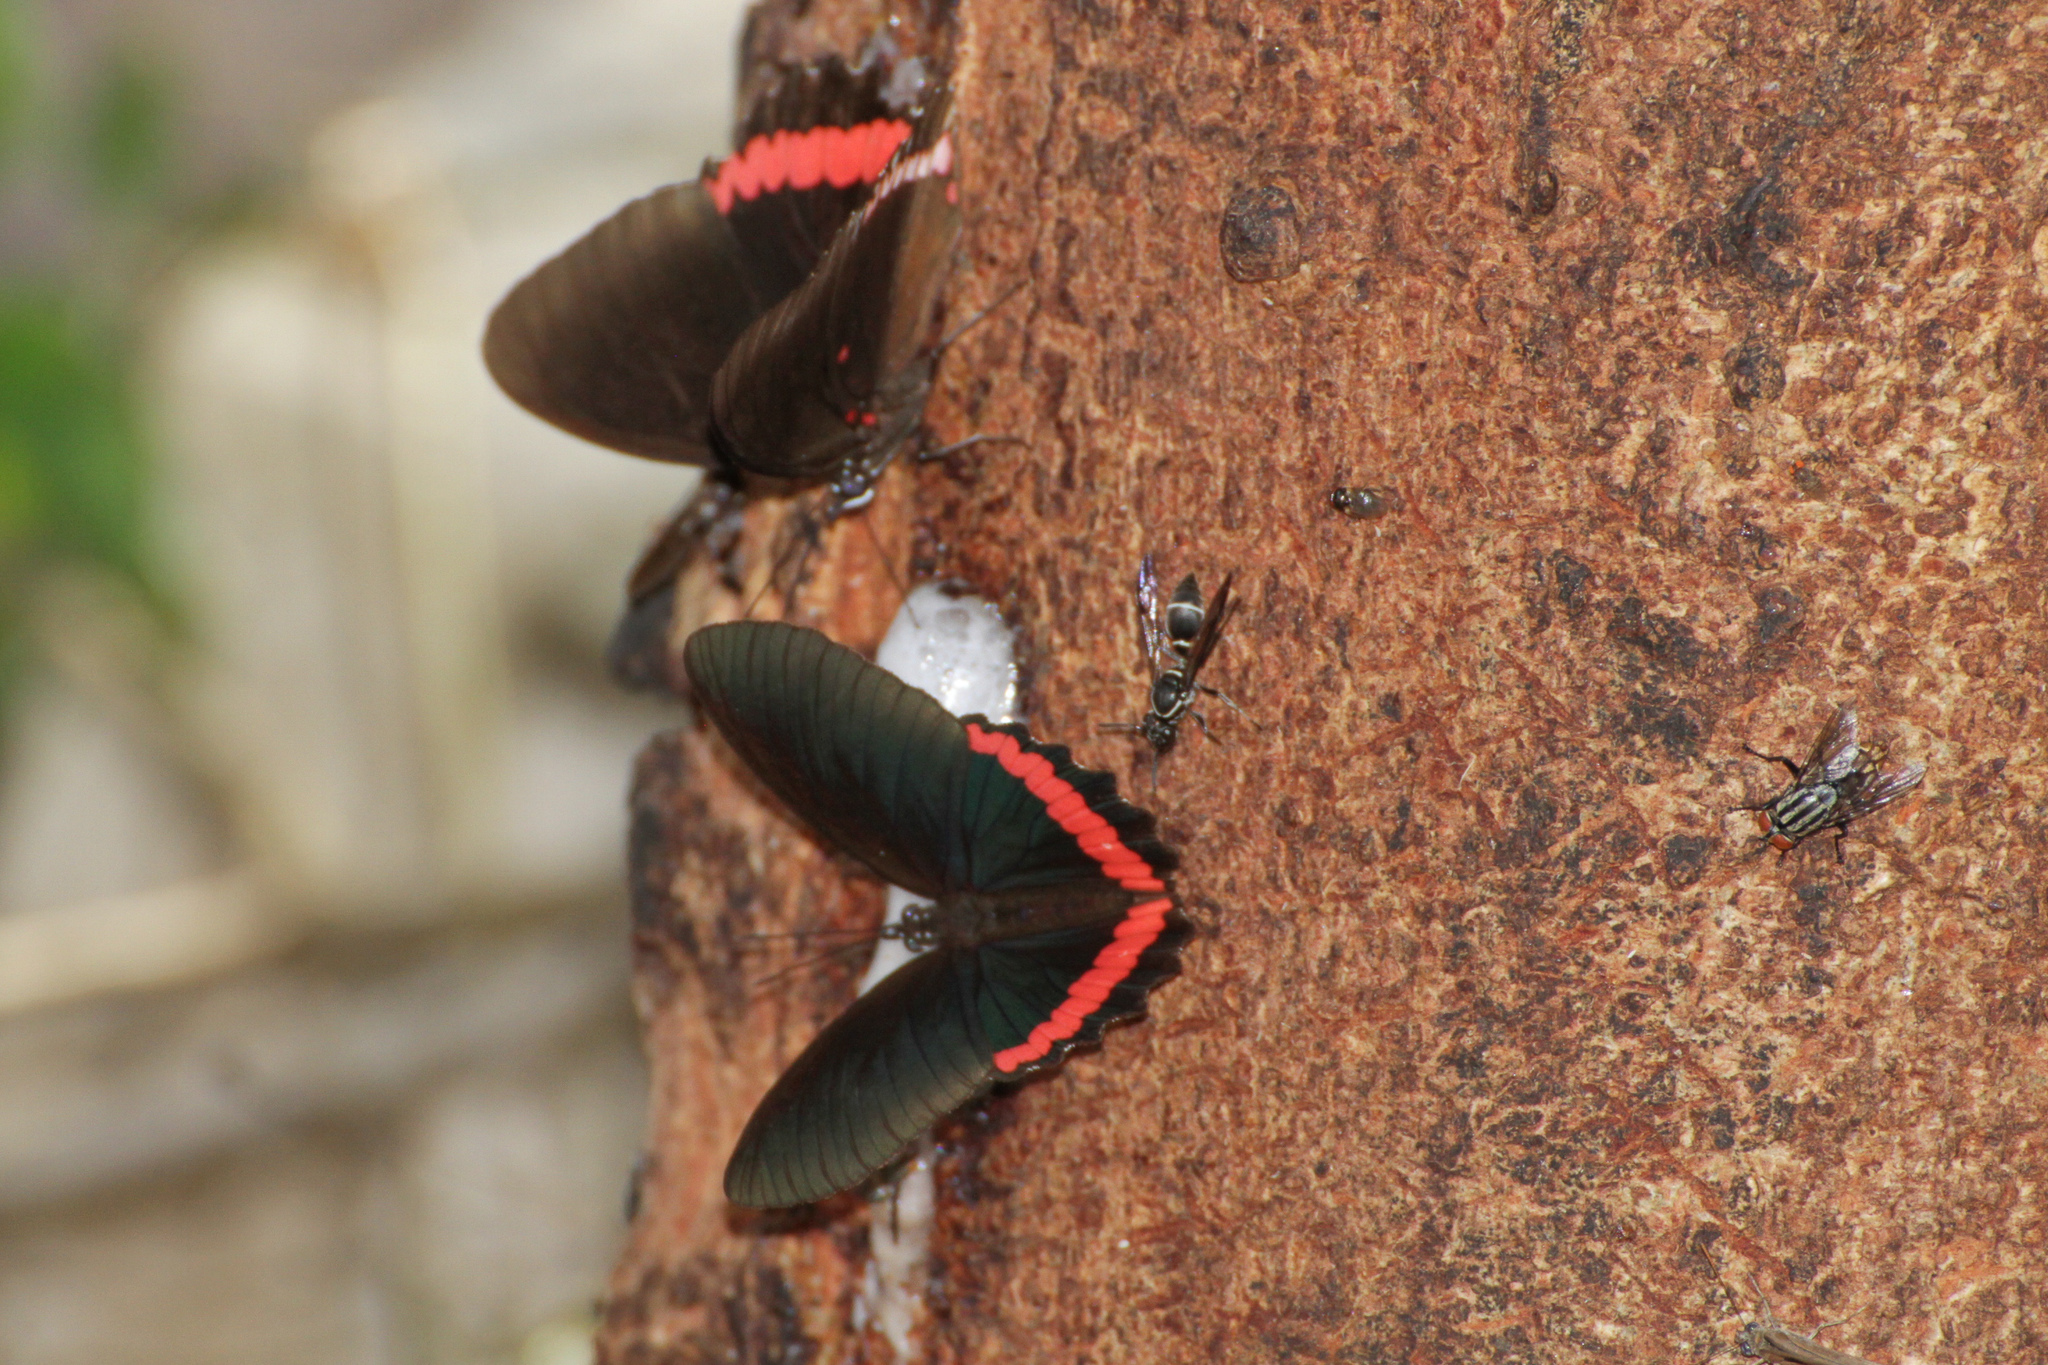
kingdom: Animalia
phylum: Arthropoda
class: Insecta
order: Lepidoptera
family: Nymphalidae
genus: Biblis
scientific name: Biblis aganisa
